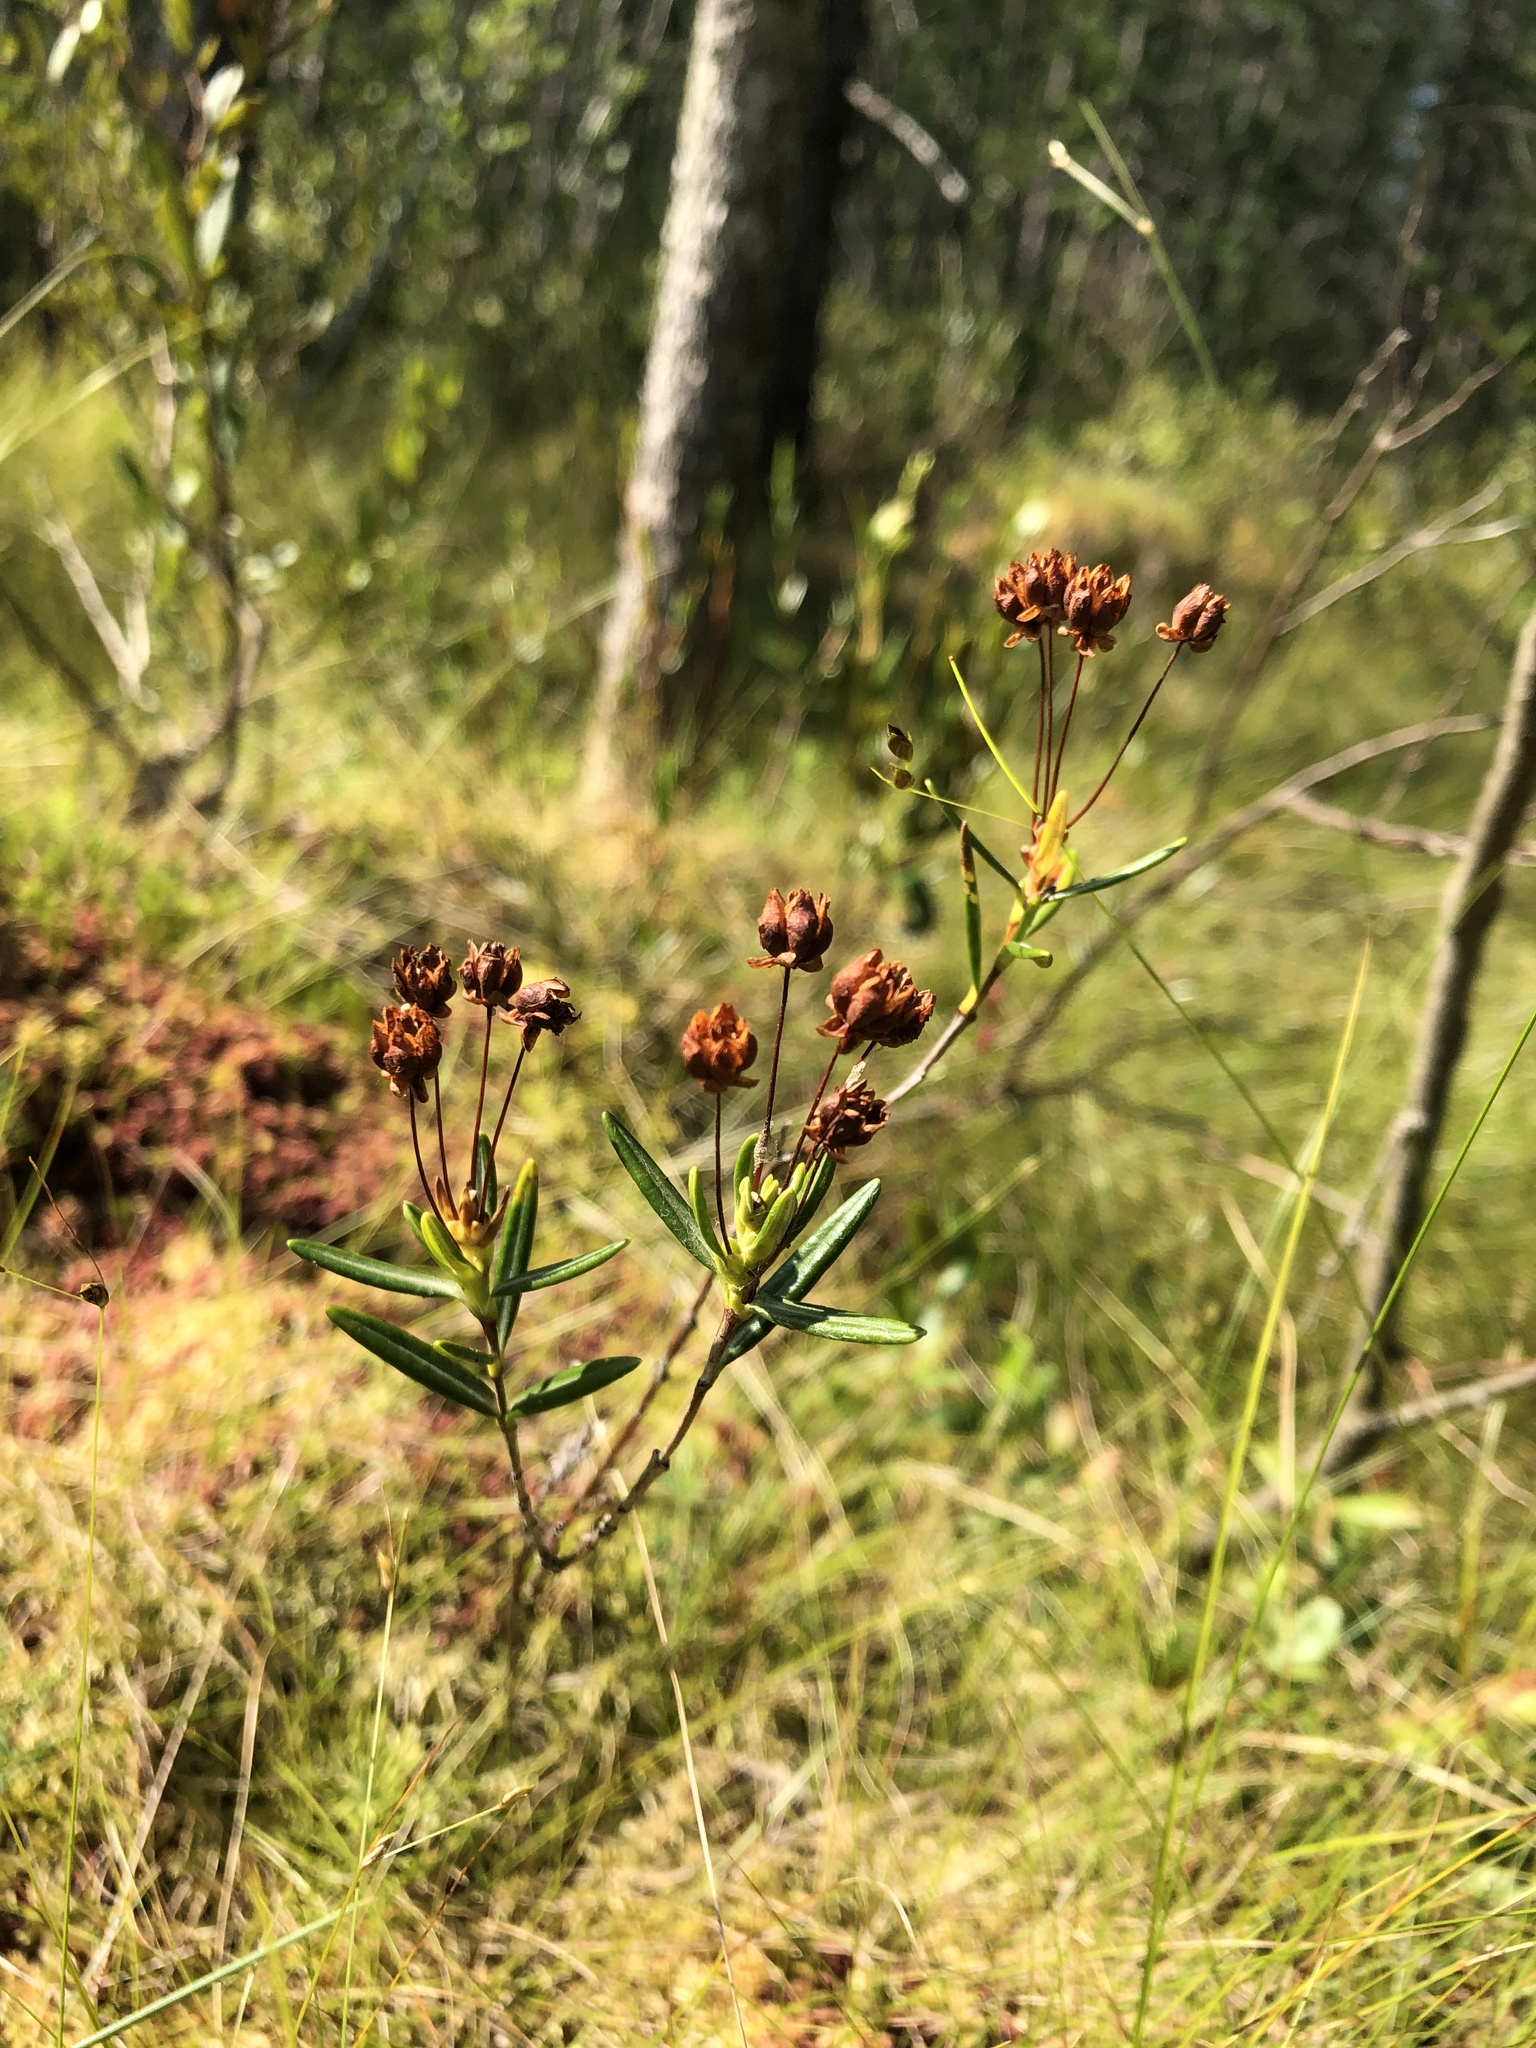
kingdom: Plantae
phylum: Tracheophyta
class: Magnoliopsida
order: Ericales
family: Ericaceae
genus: Kalmia
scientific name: Kalmia polifolia
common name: Bog-laurel
